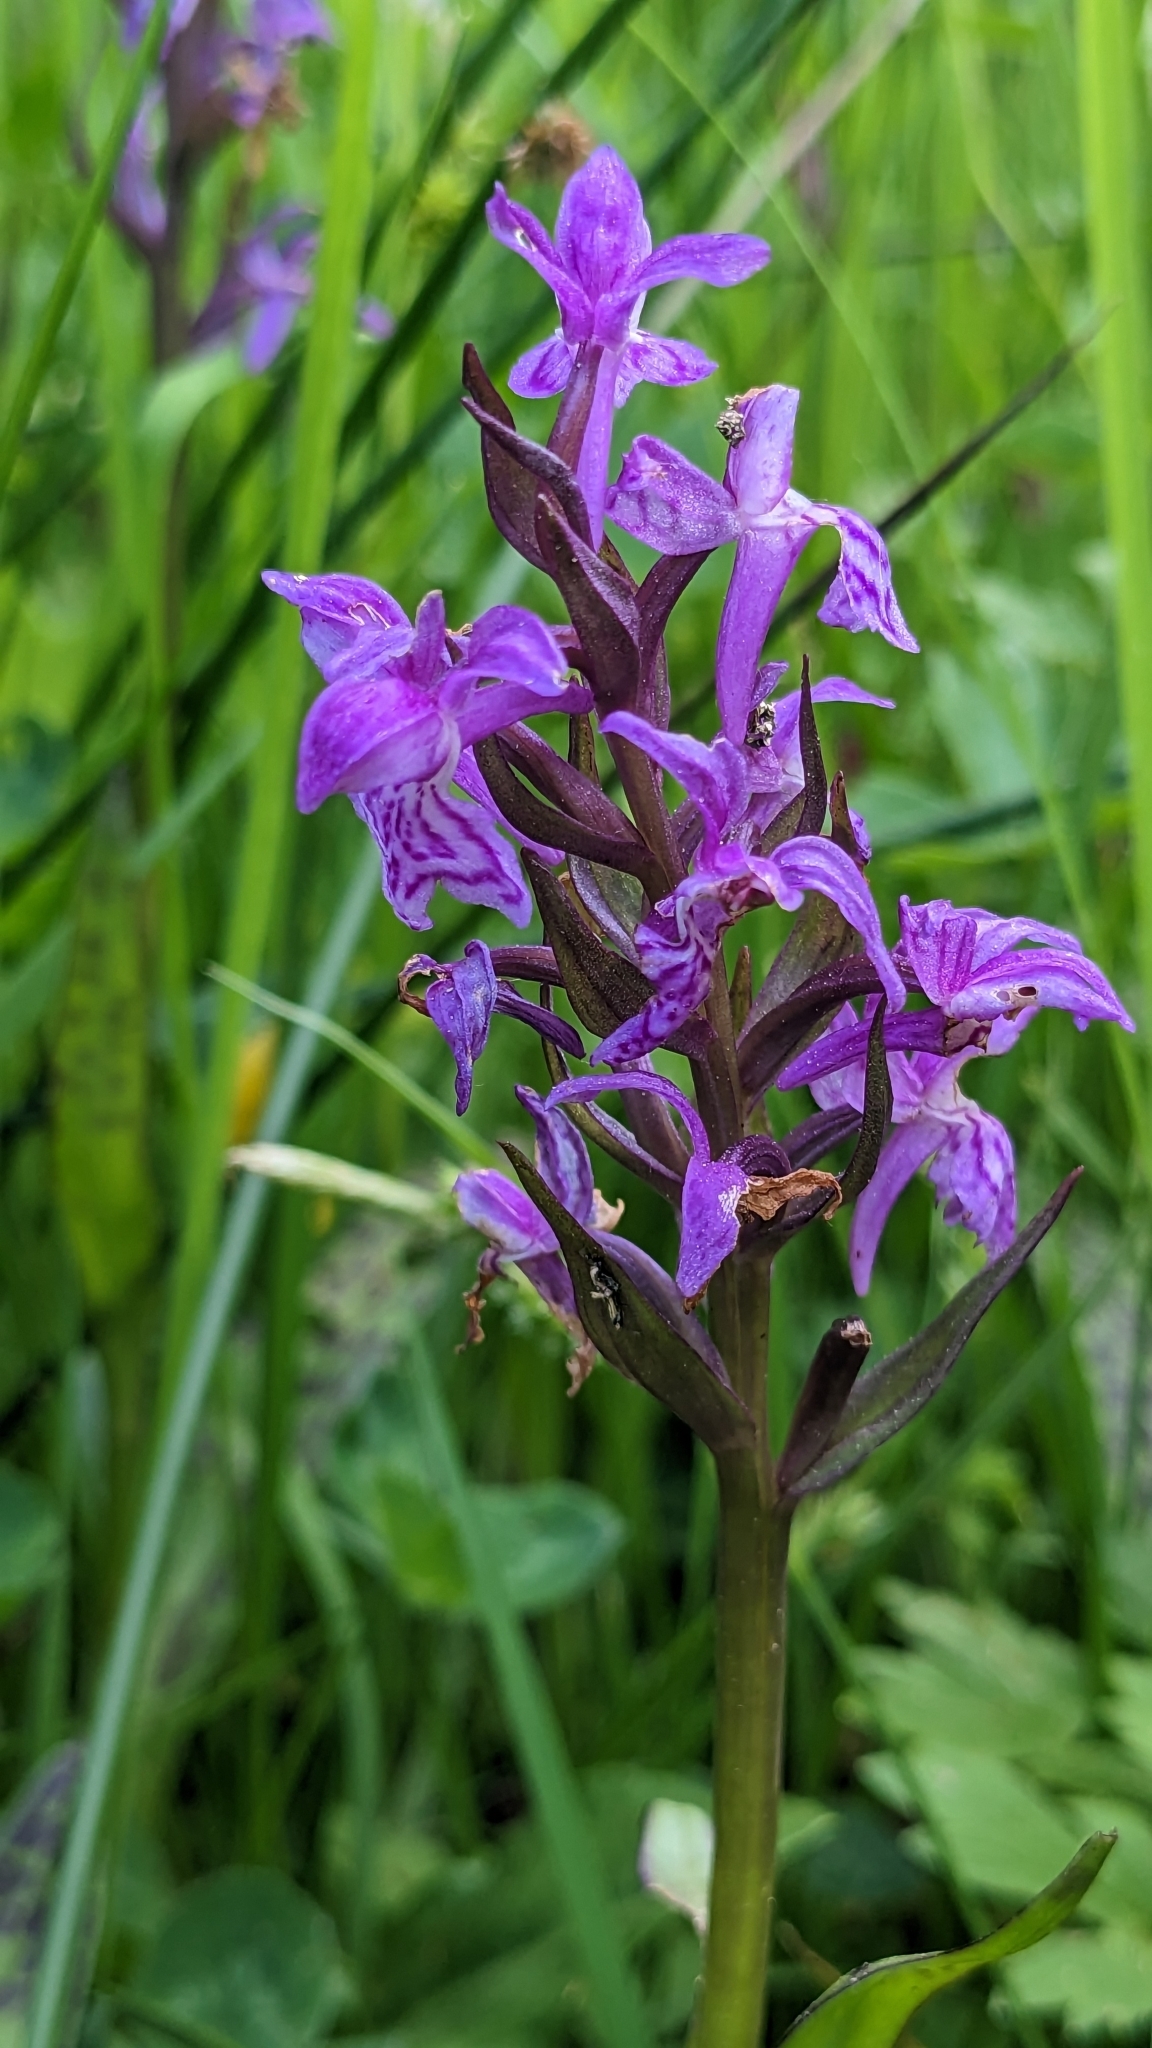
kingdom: Plantae
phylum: Tracheophyta
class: Liliopsida
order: Asparagales
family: Orchidaceae
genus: Dactylorhiza
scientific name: Dactylorhiza majalis
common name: Marsh orchid
